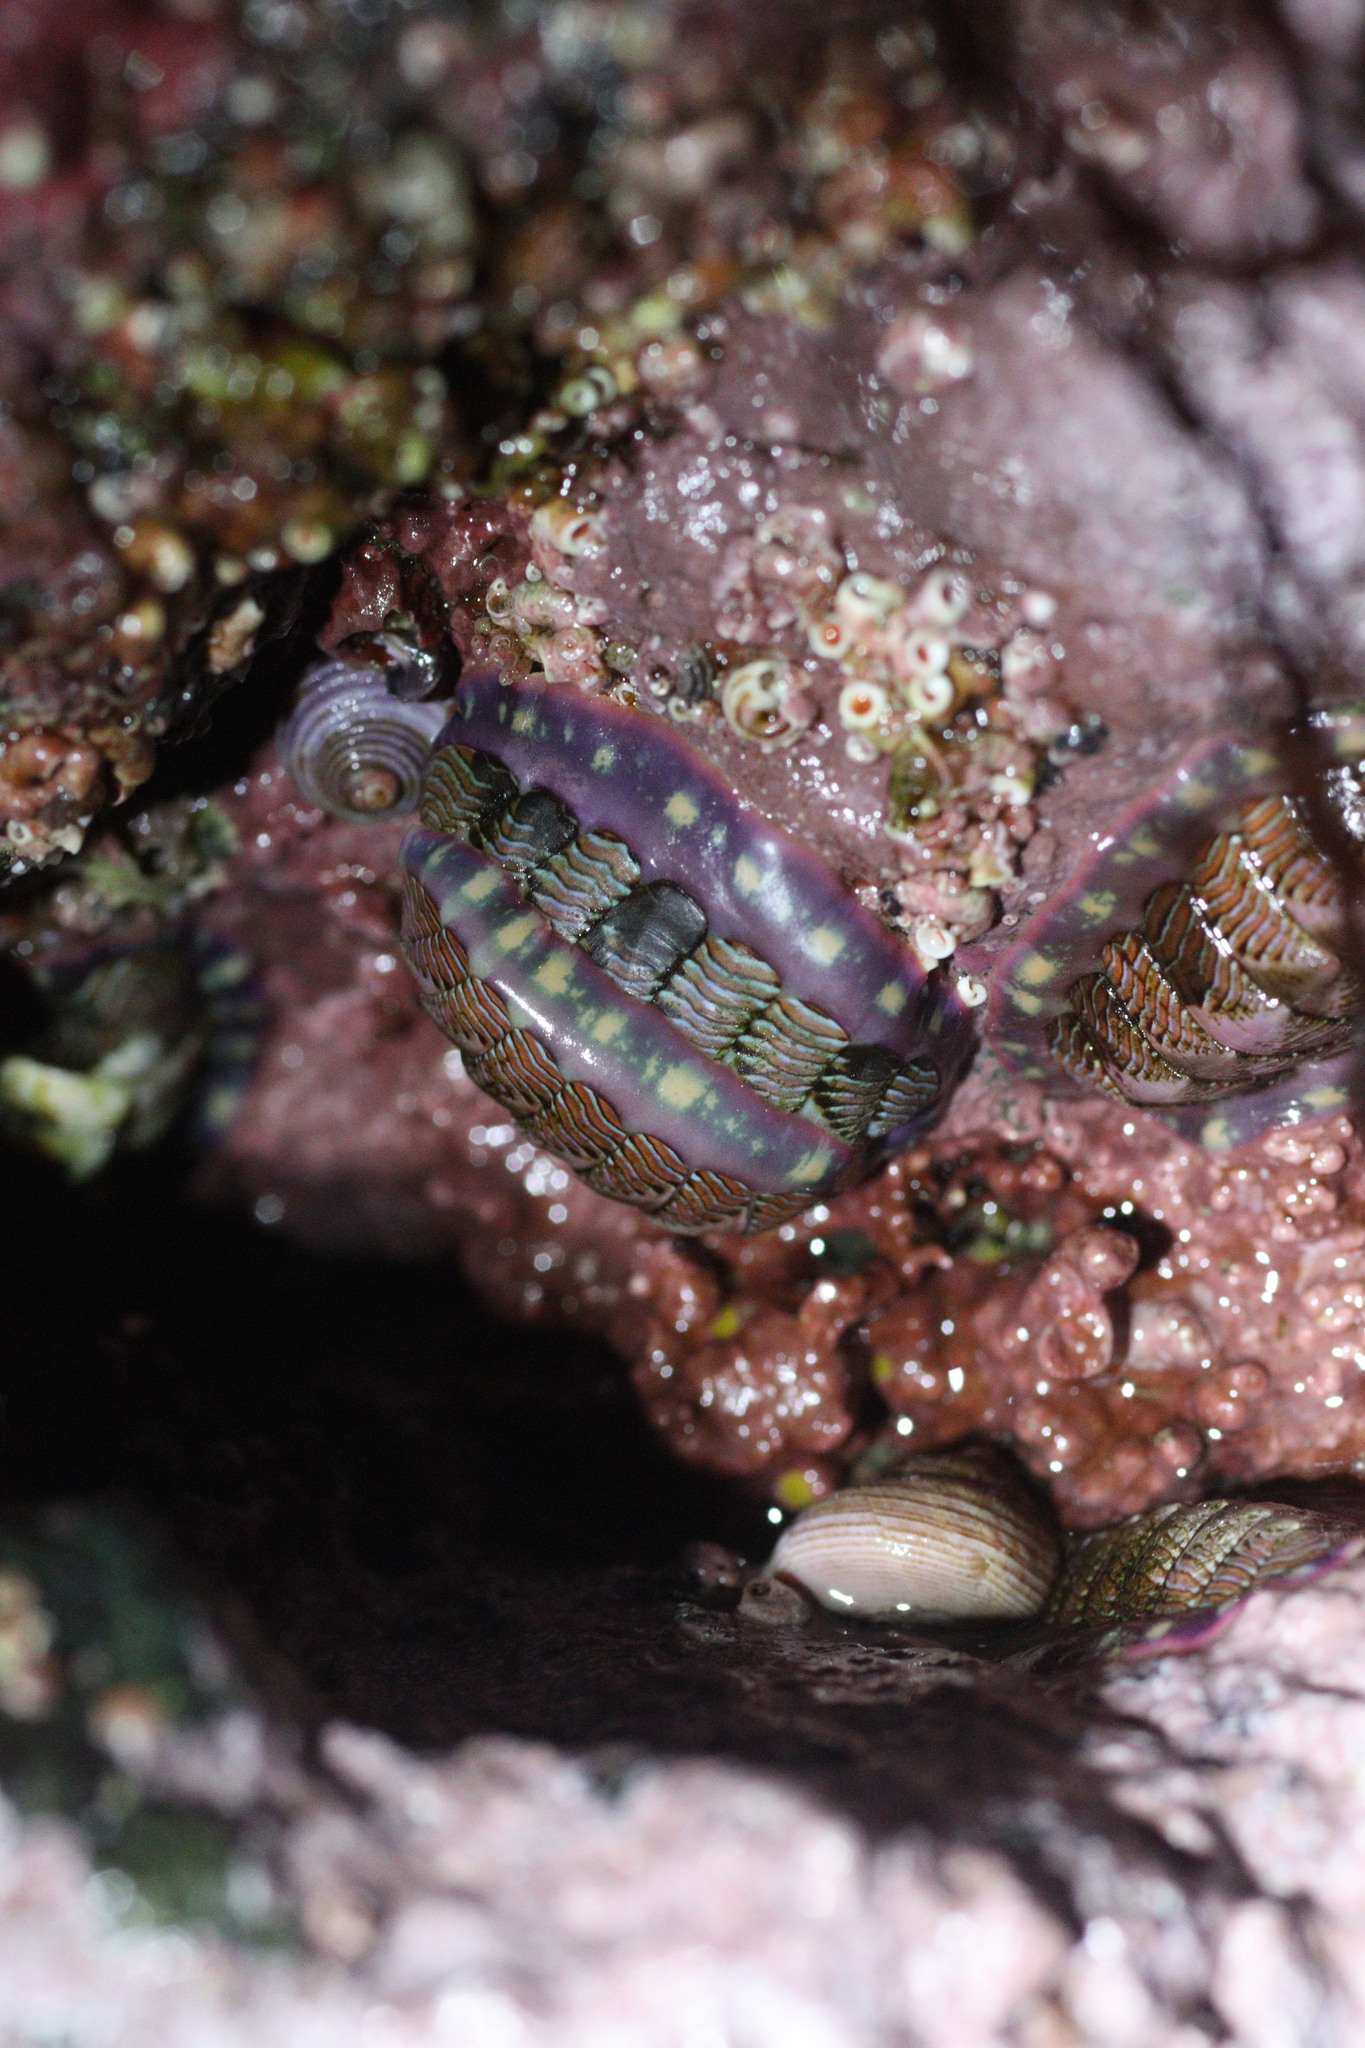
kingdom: Animalia
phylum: Mollusca
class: Polyplacophora
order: Chitonida
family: Tonicellidae
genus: Tonicella
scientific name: Tonicella lineata
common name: Lined chiton
